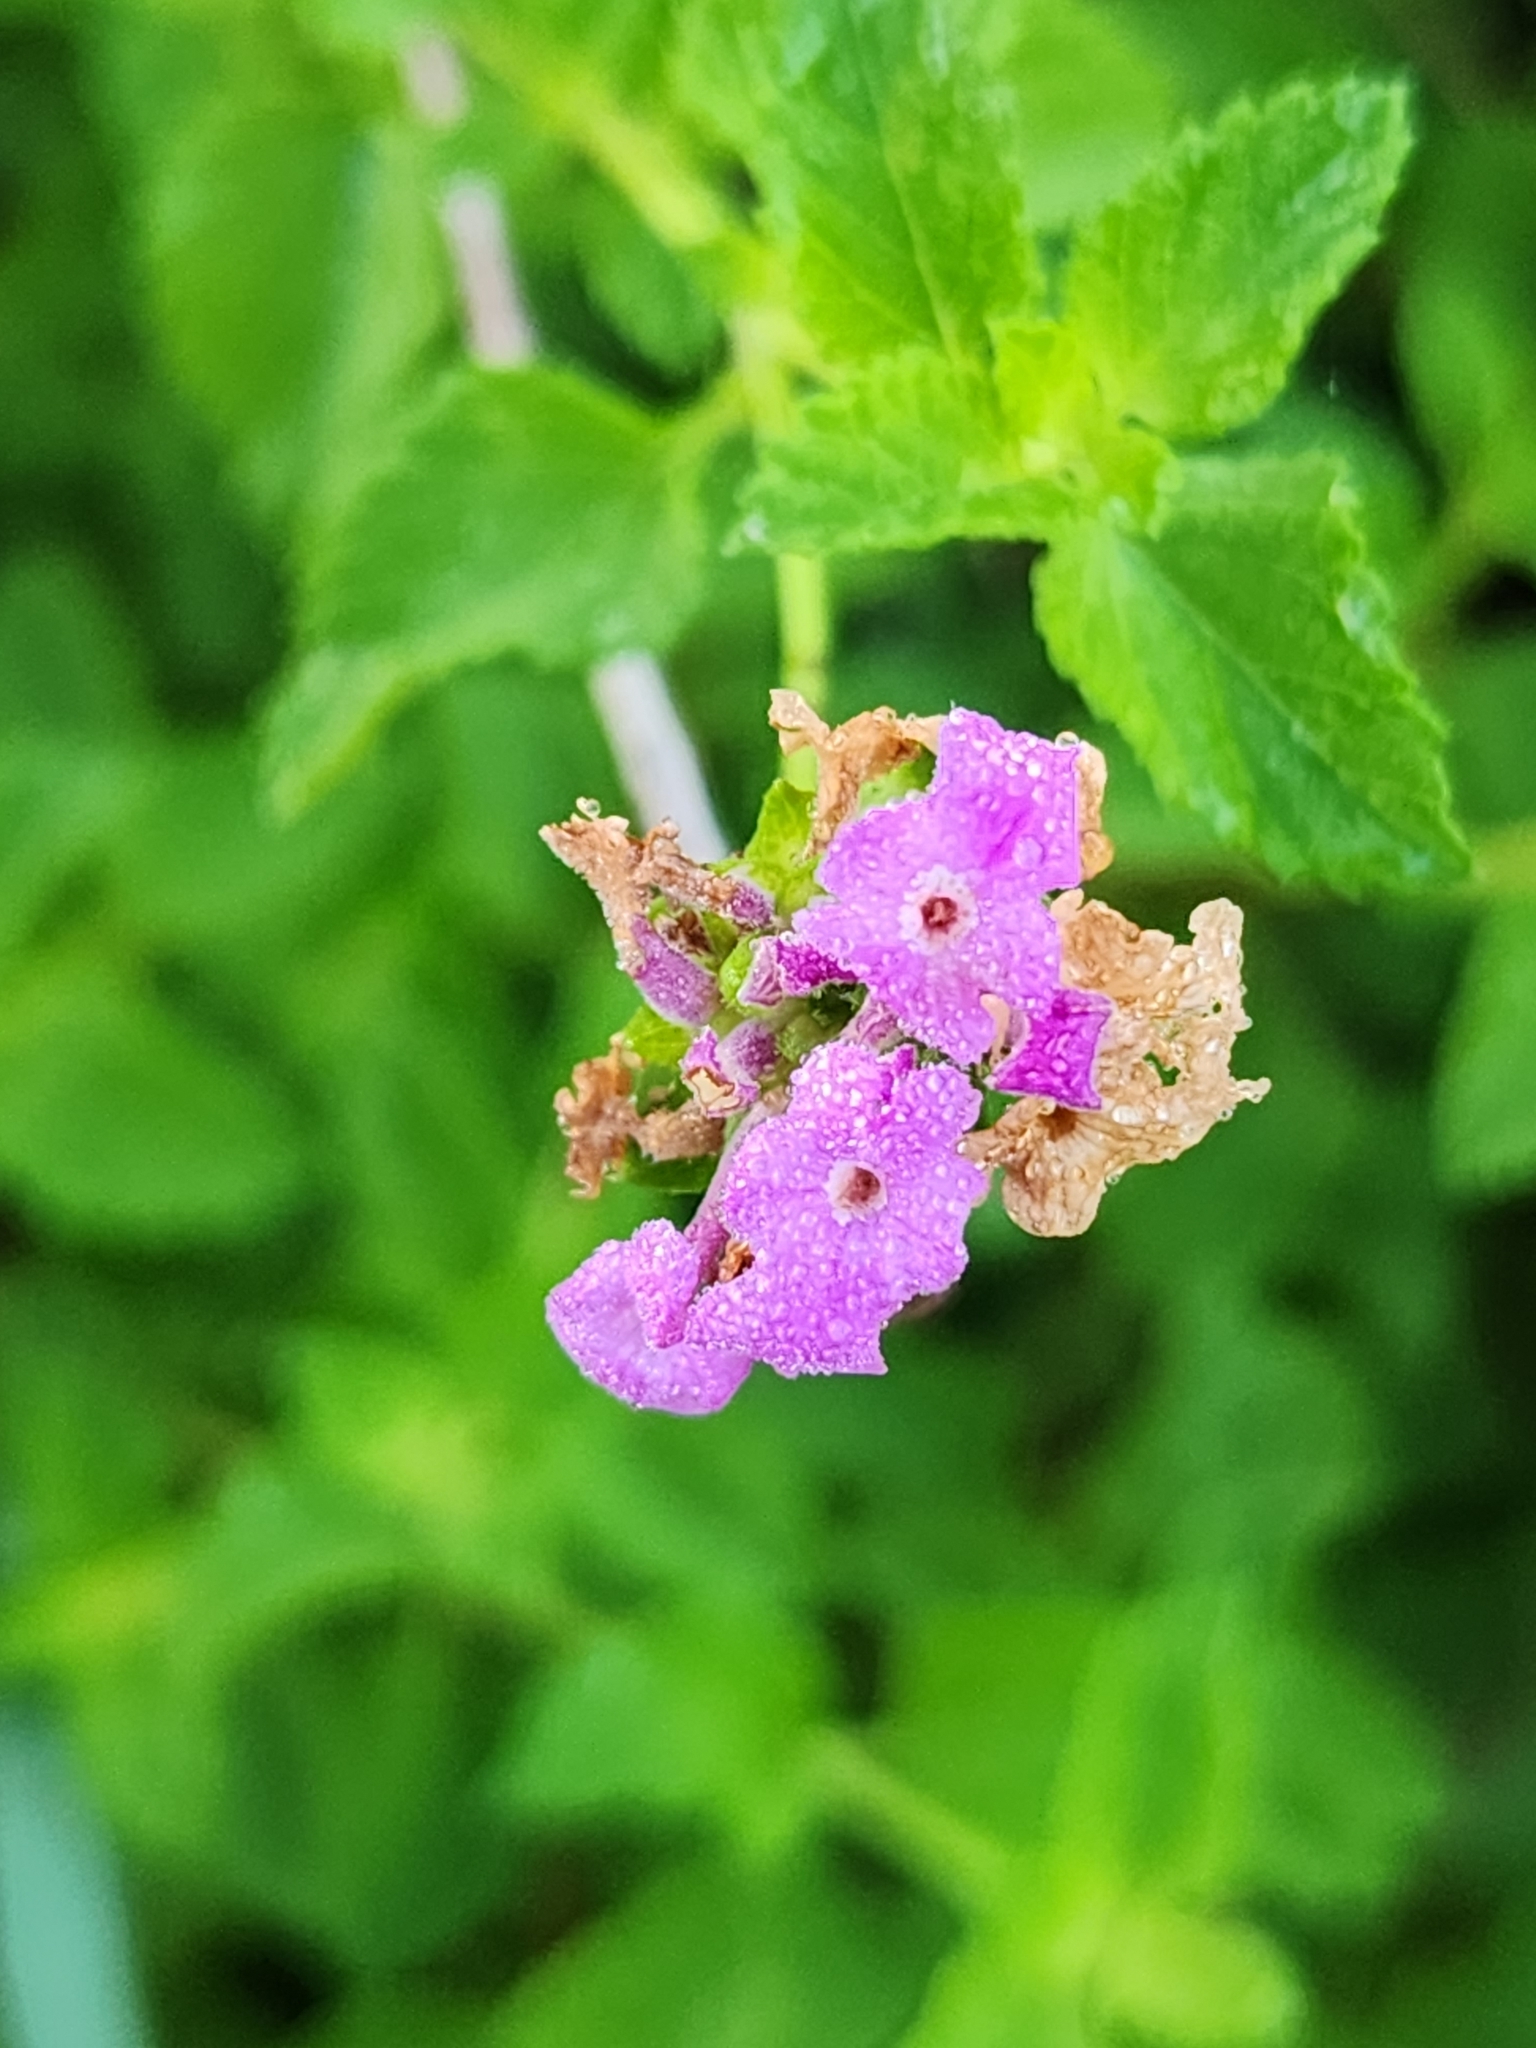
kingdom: Plantae
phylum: Tracheophyta
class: Magnoliopsida
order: Lamiales
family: Verbenaceae
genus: Lantana
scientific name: Lantana montevidensis
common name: Trailing shrubverbena
